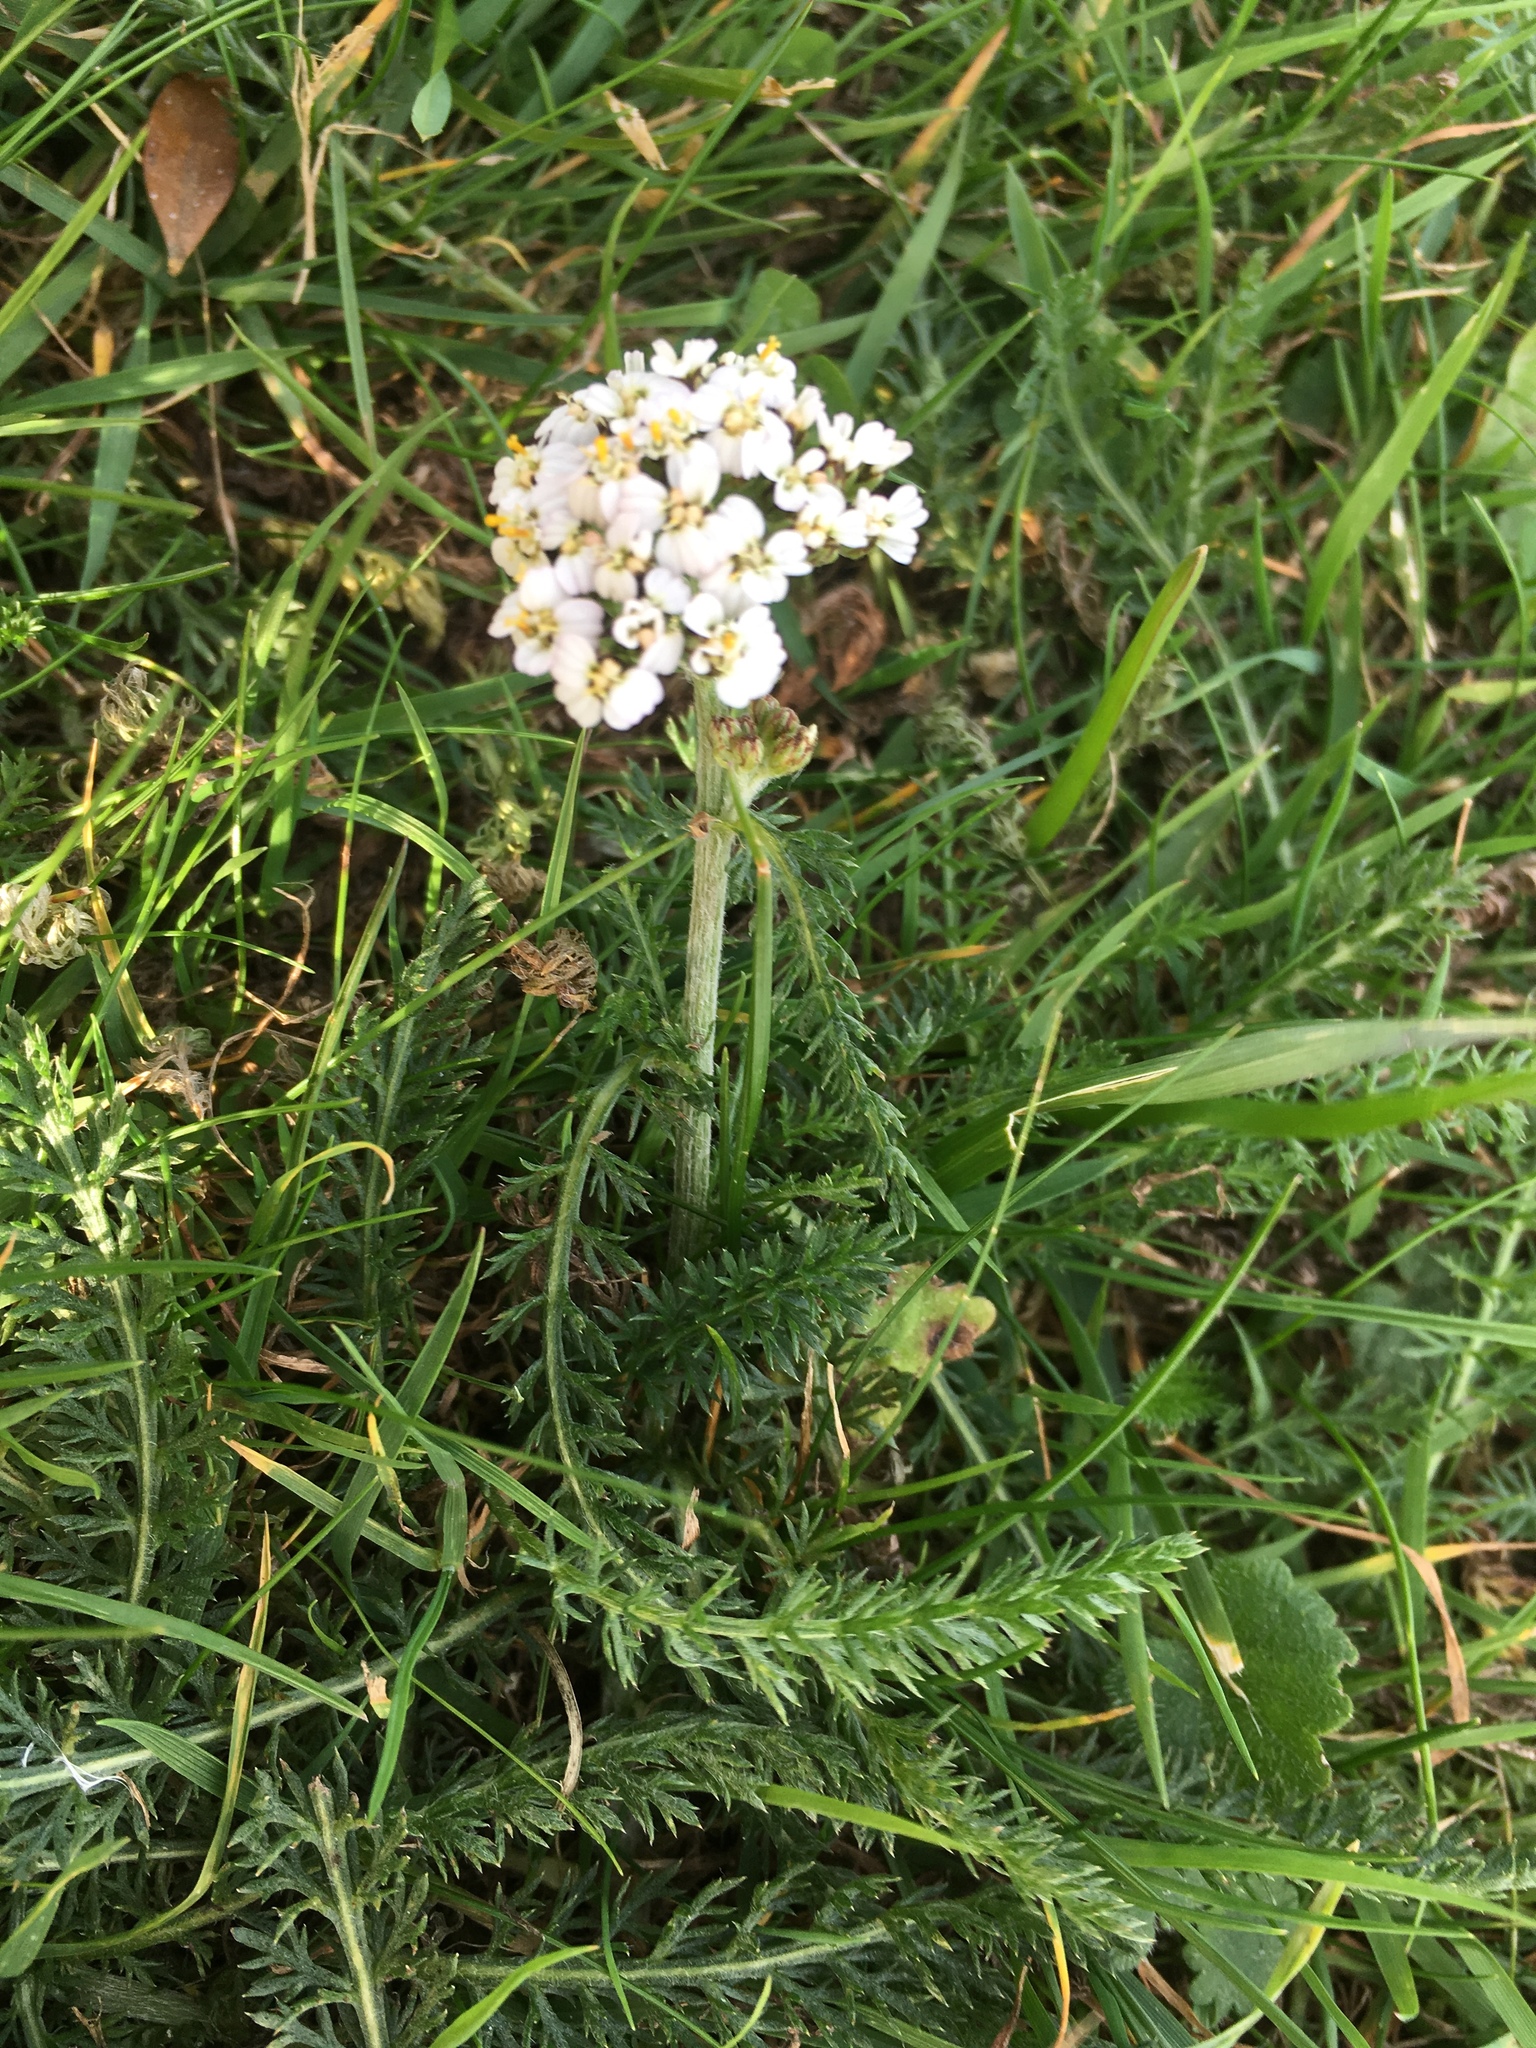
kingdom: Plantae
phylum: Tracheophyta
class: Magnoliopsida
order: Asterales
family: Asteraceae
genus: Achillea
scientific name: Achillea millefolium
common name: Yarrow
